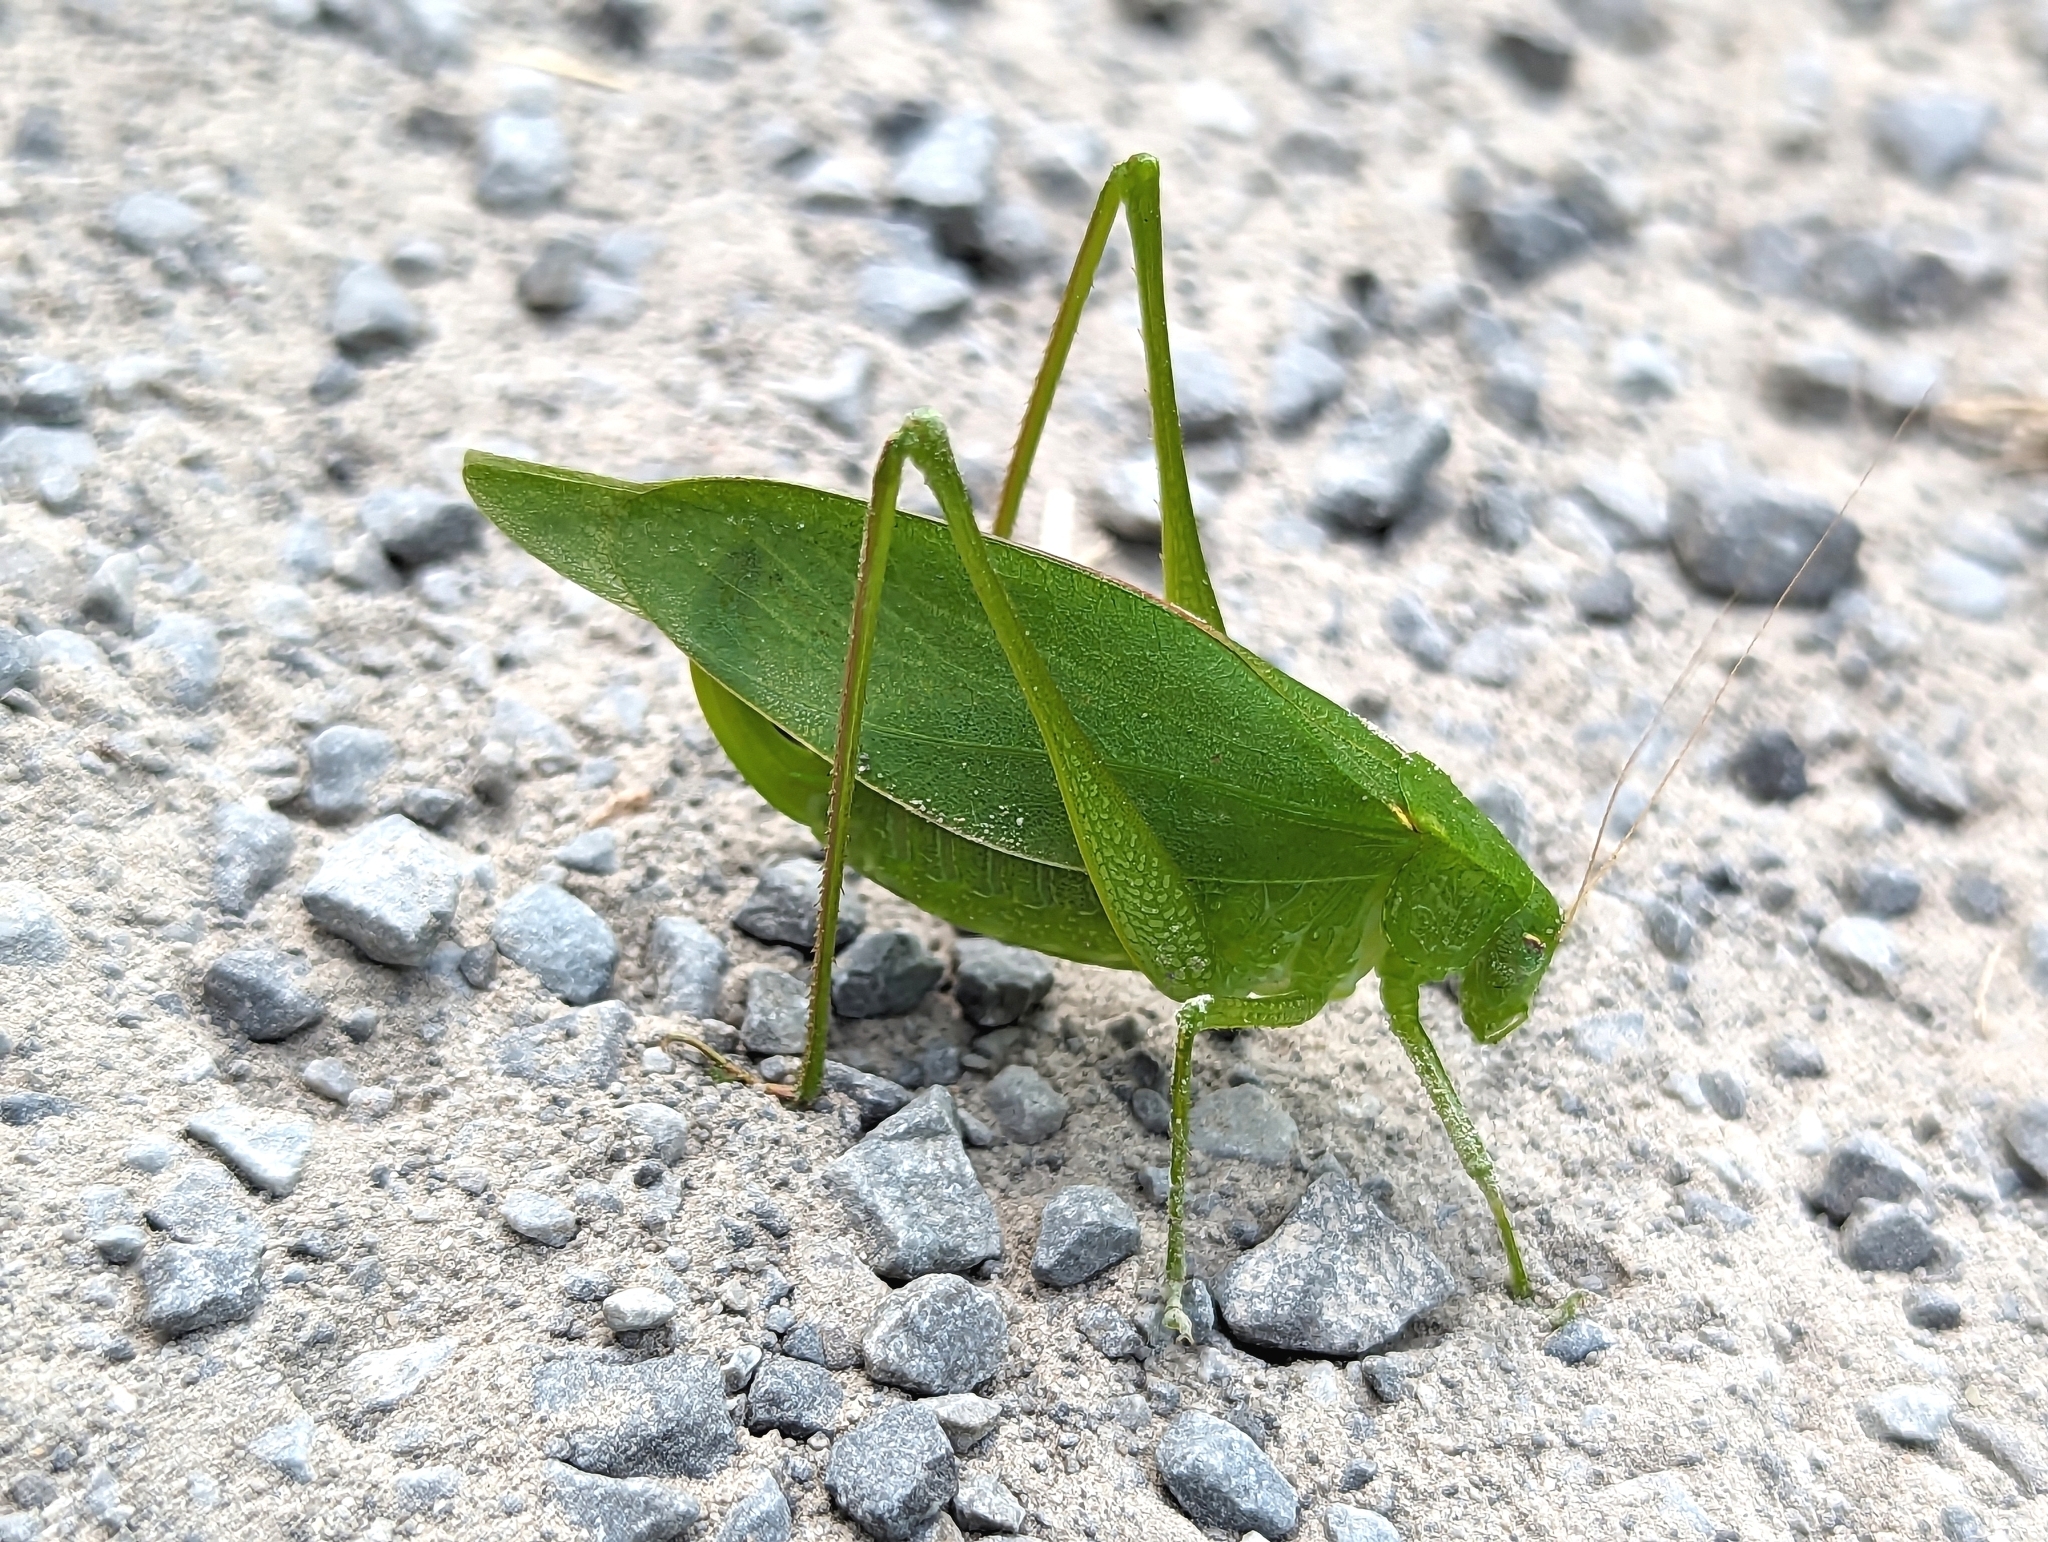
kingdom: Animalia
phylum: Arthropoda
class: Insecta
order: Orthoptera
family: Tettigoniidae
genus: Amblycorypha
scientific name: Amblycorypha oblongifolia
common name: Oblong-winged katydid
